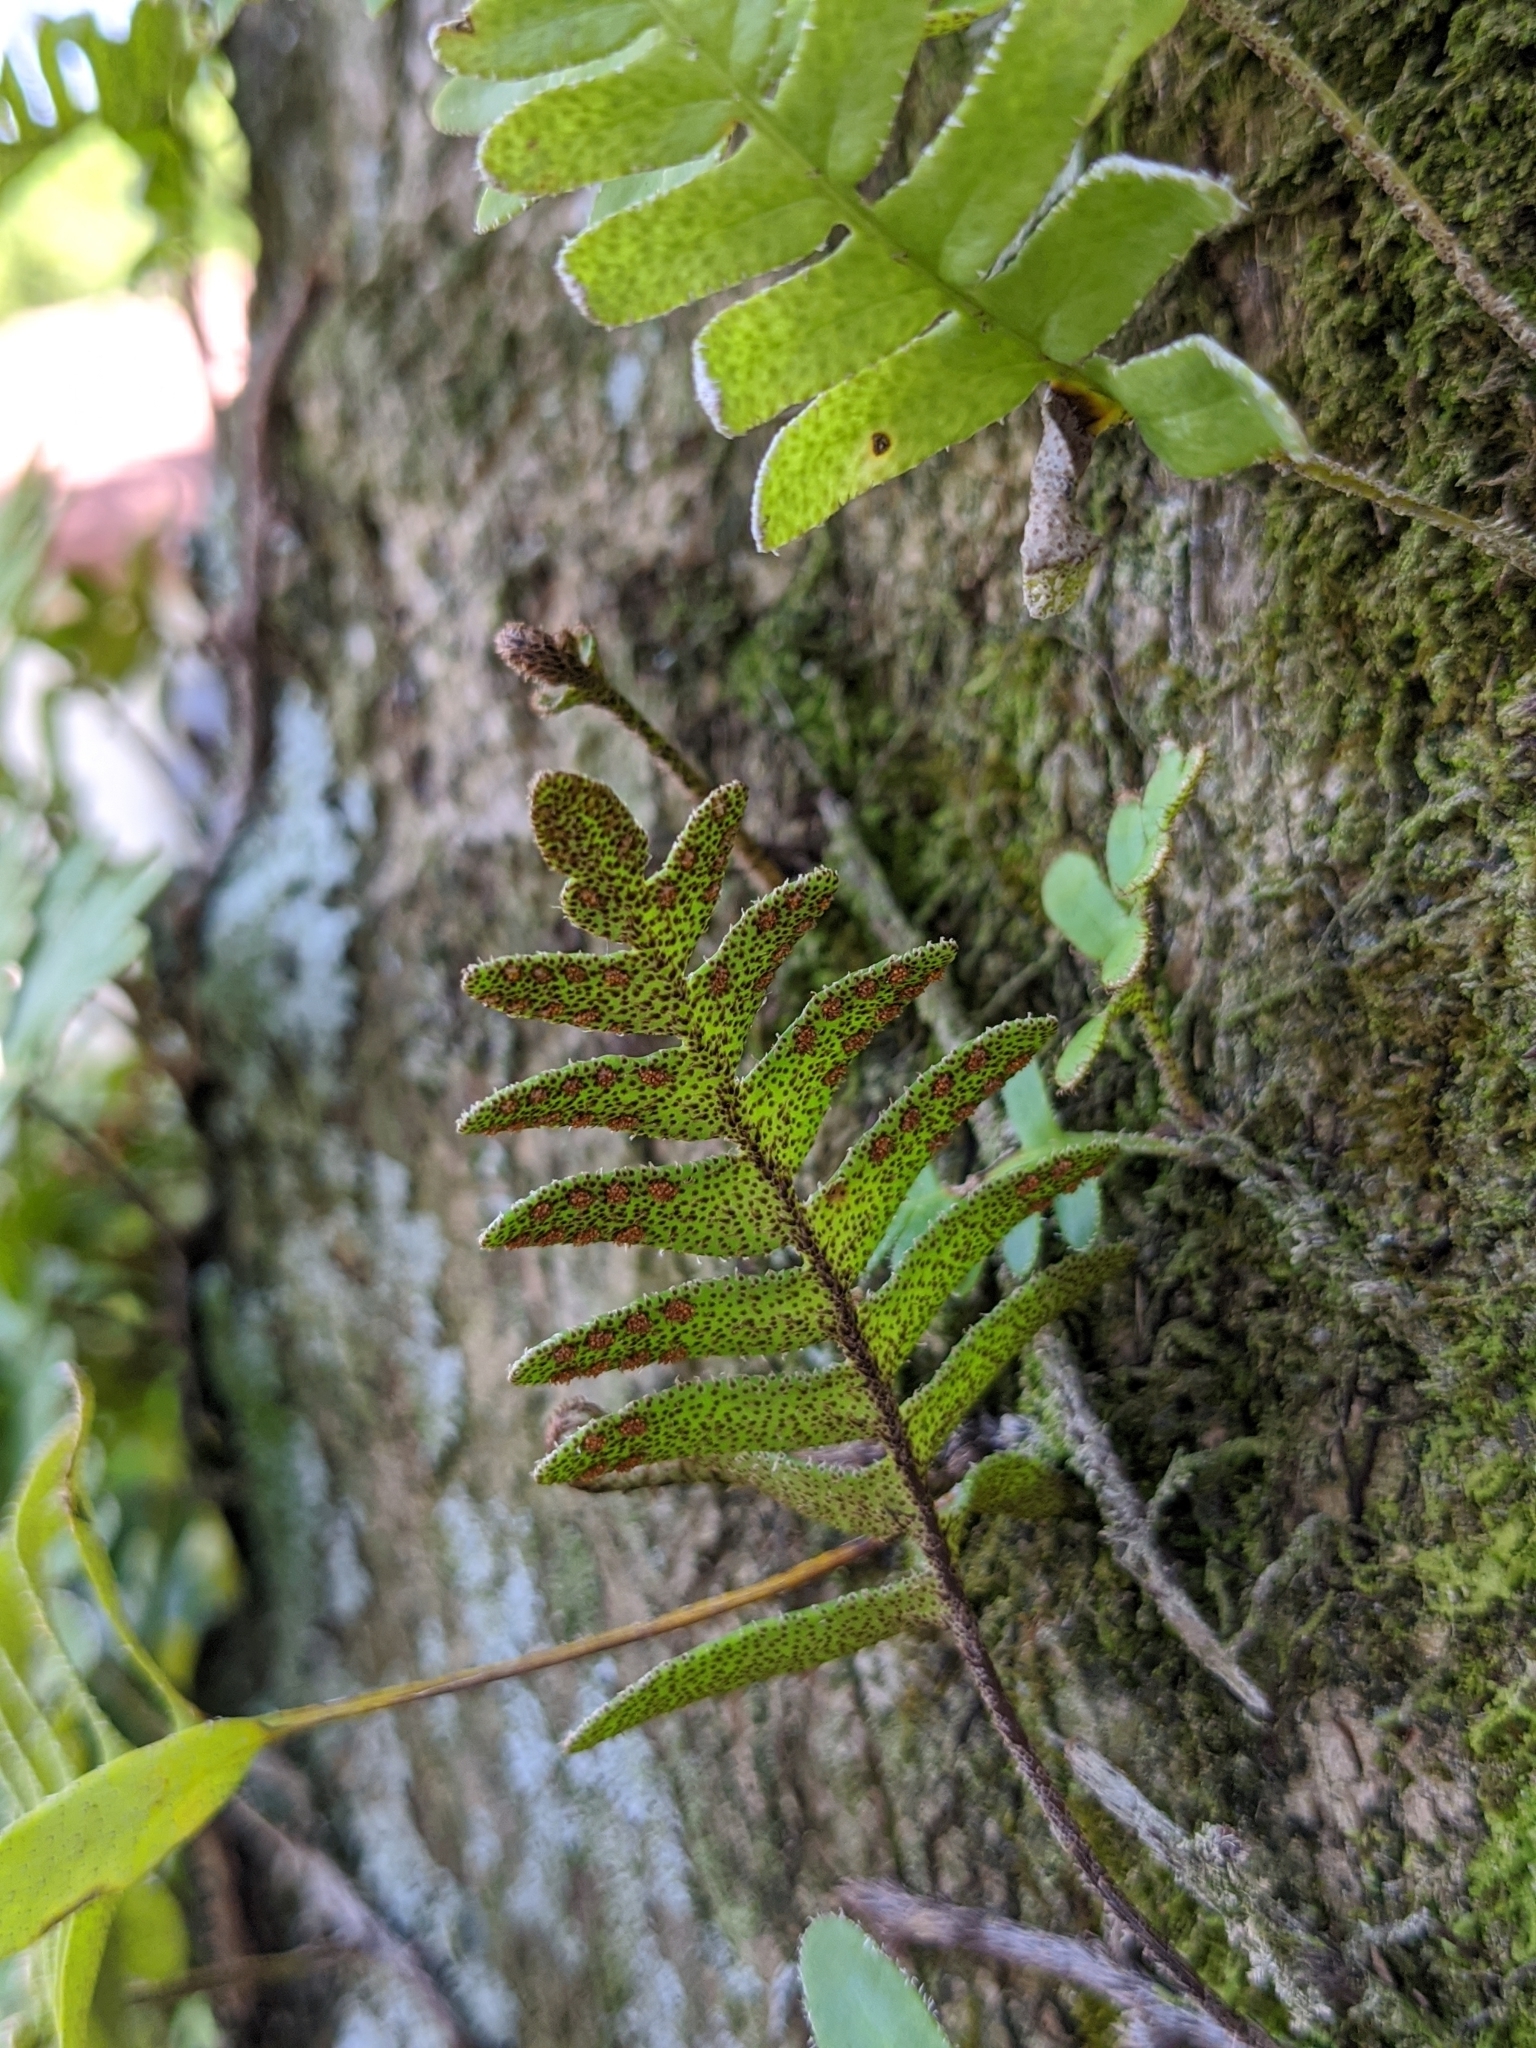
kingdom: Plantae
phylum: Tracheophyta
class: Polypodiopsida
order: Polypodiales
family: Polypodiaceae
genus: Pleopeltis
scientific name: Pleopeltis michauxiana
